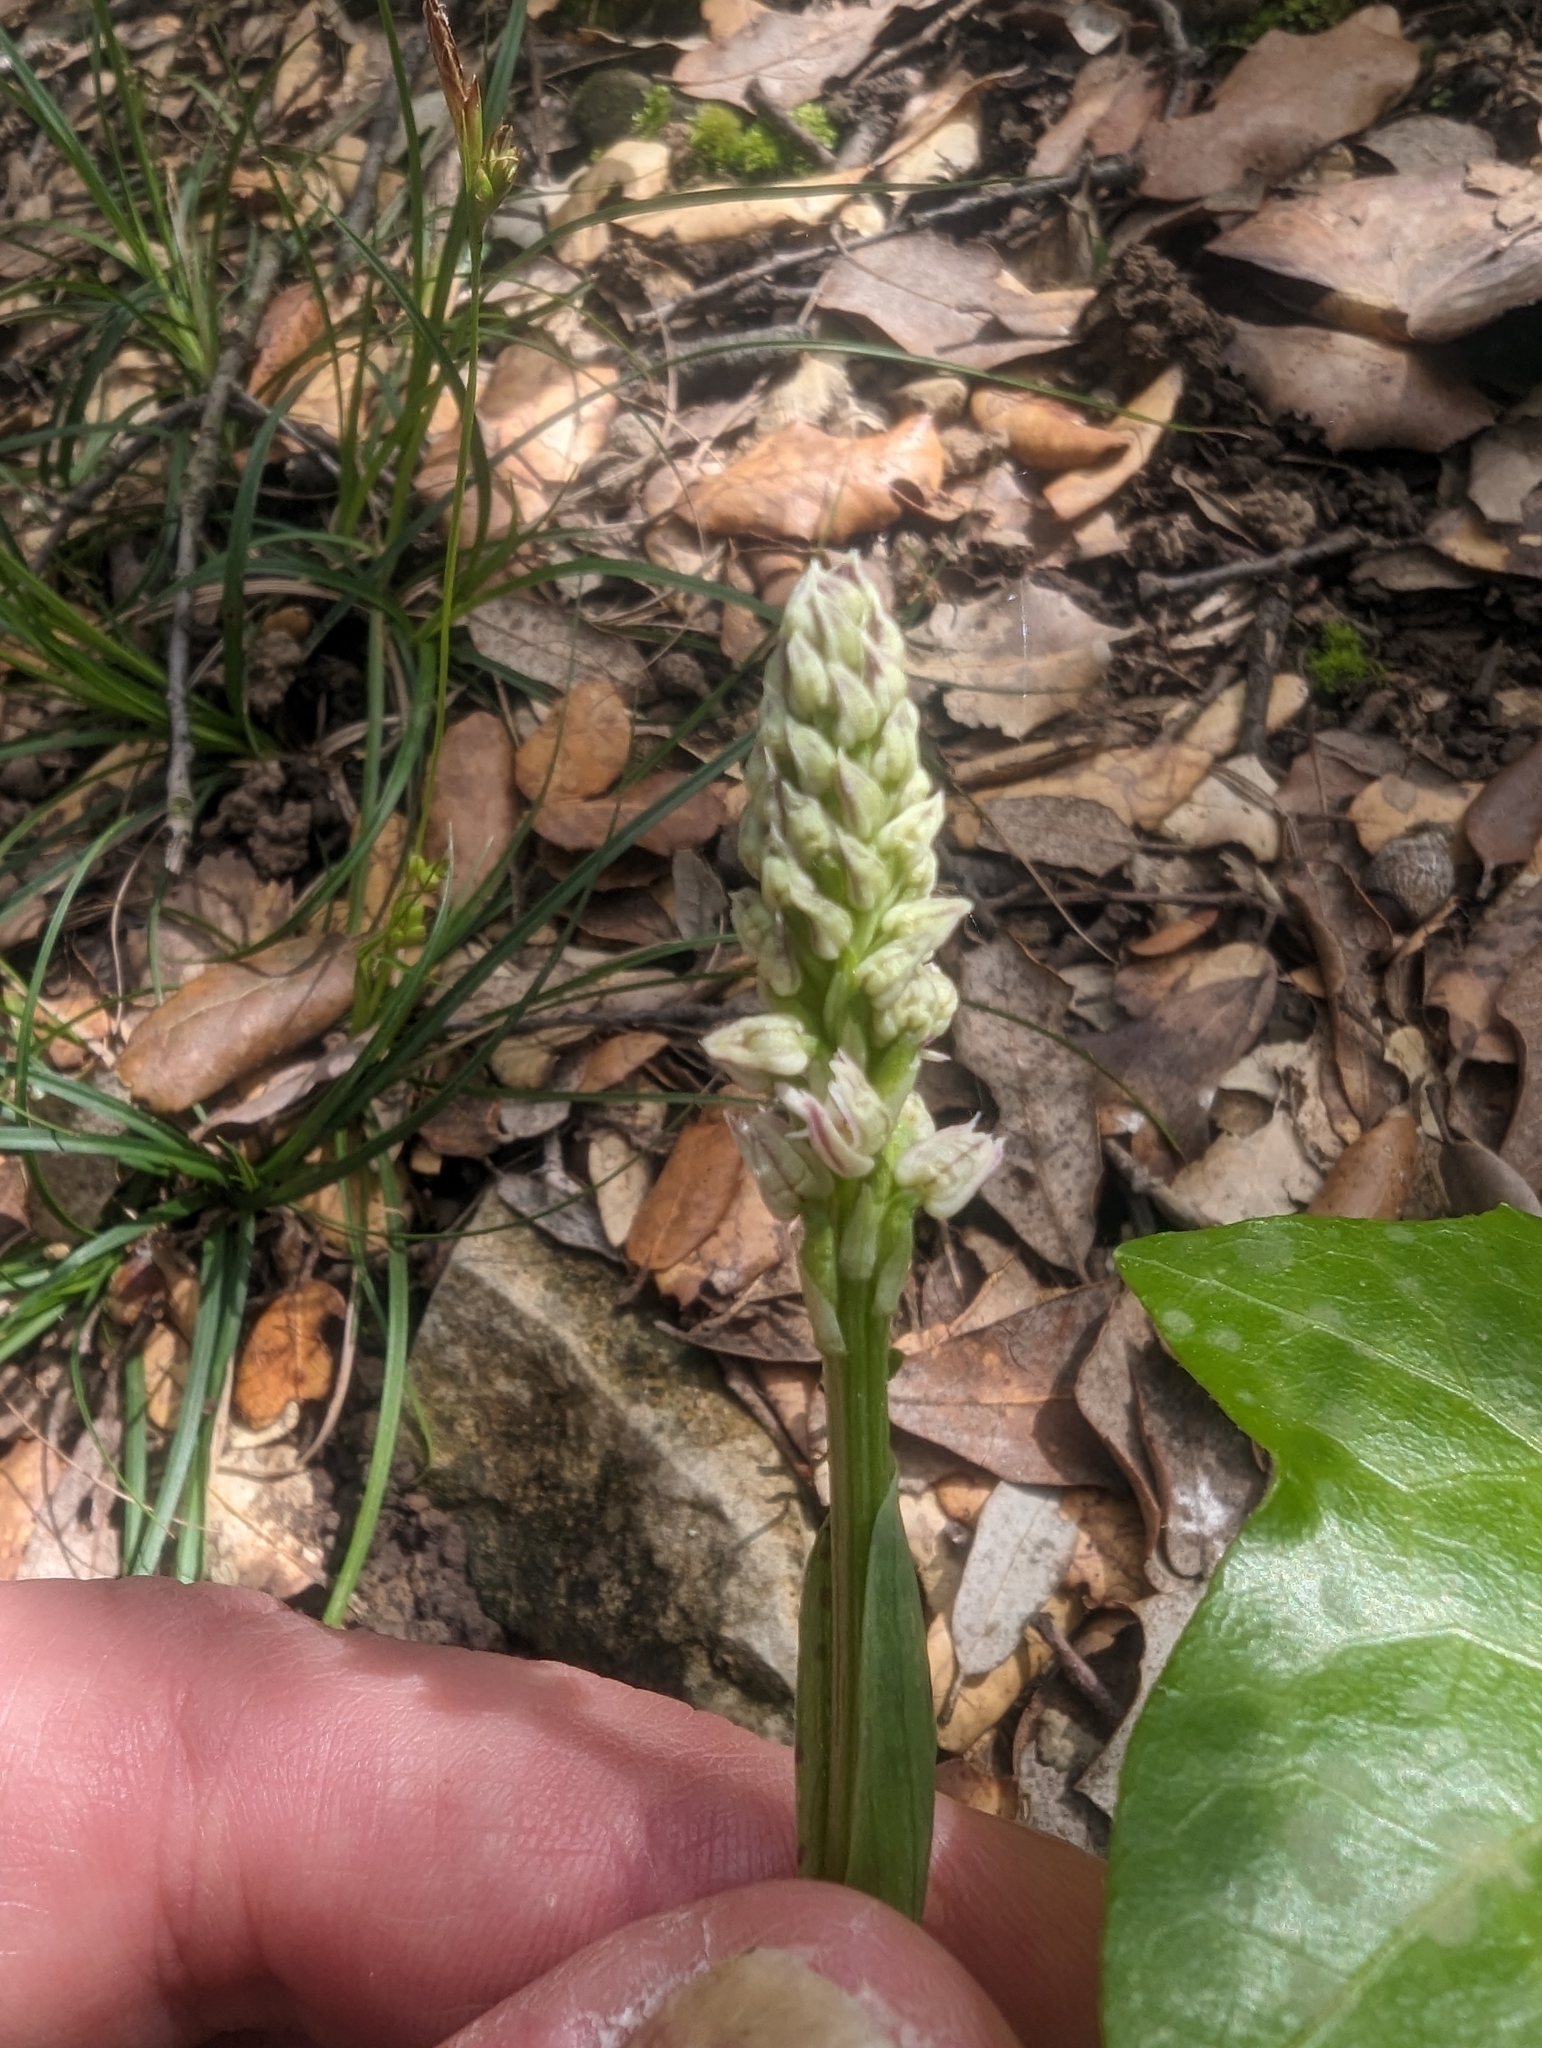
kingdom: Plantae
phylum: Tracheophyta
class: Liliopsida
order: Asparagales
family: Orchidaceae
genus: Neotinea
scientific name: Neotinea maculata
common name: Dense-flowered orchid
